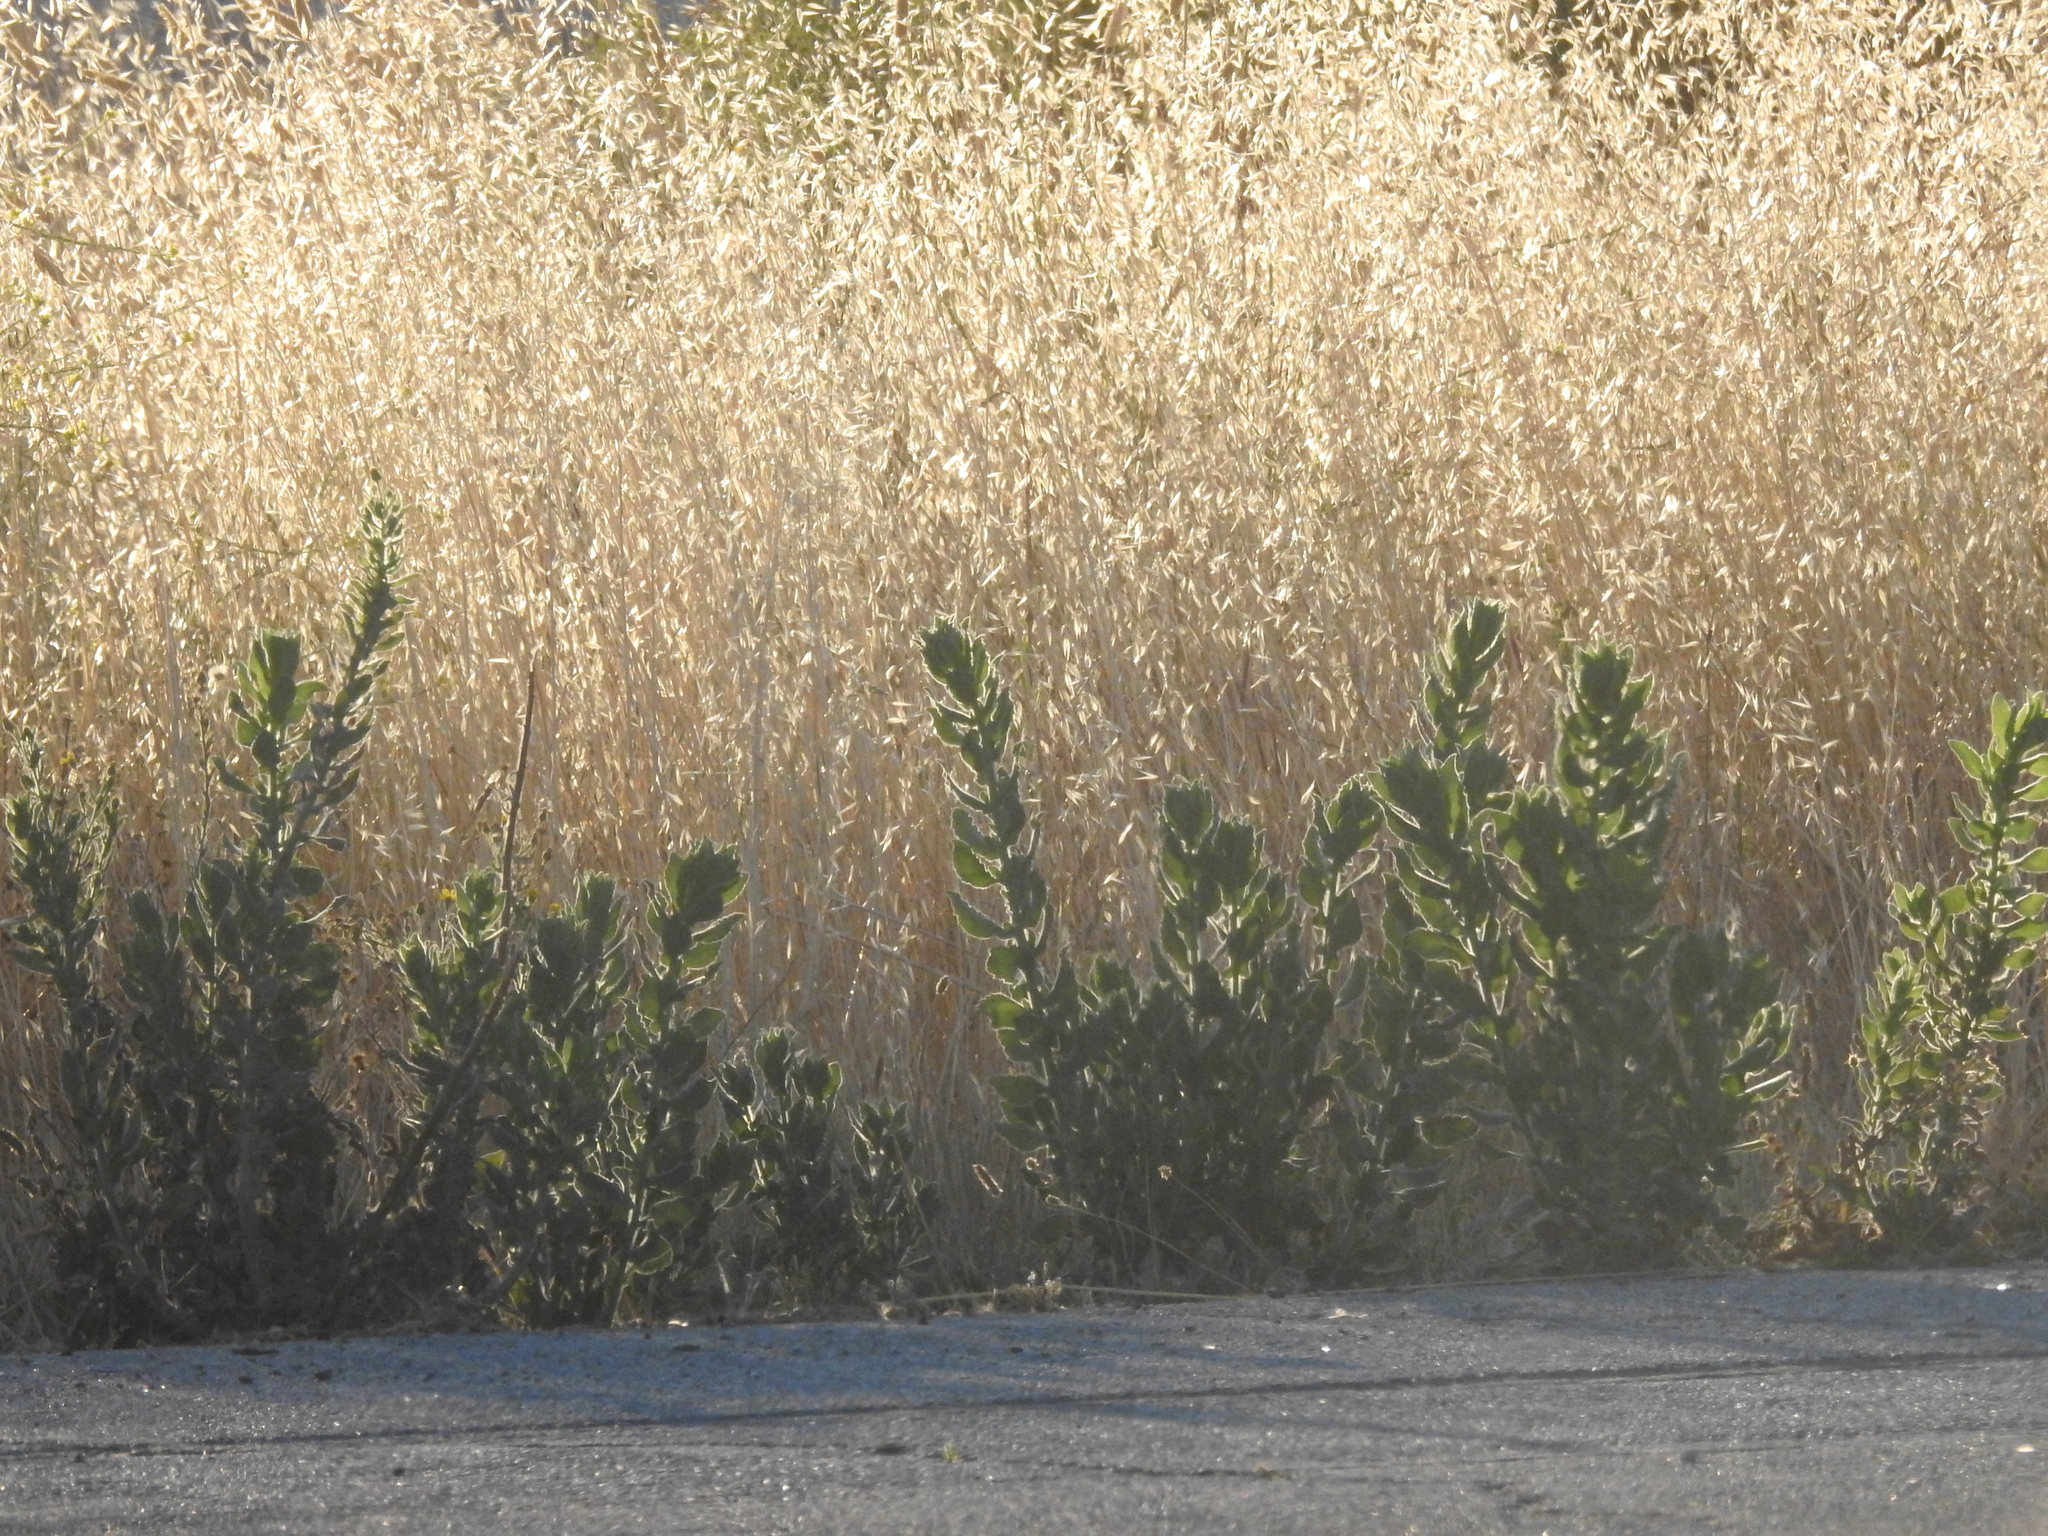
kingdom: Plantae
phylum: Tracheophyta
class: Magnoliopsida
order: Asterales
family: Asteraceae
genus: Heterotheca
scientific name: Heterotheca grandiflora
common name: Telegraphweed
